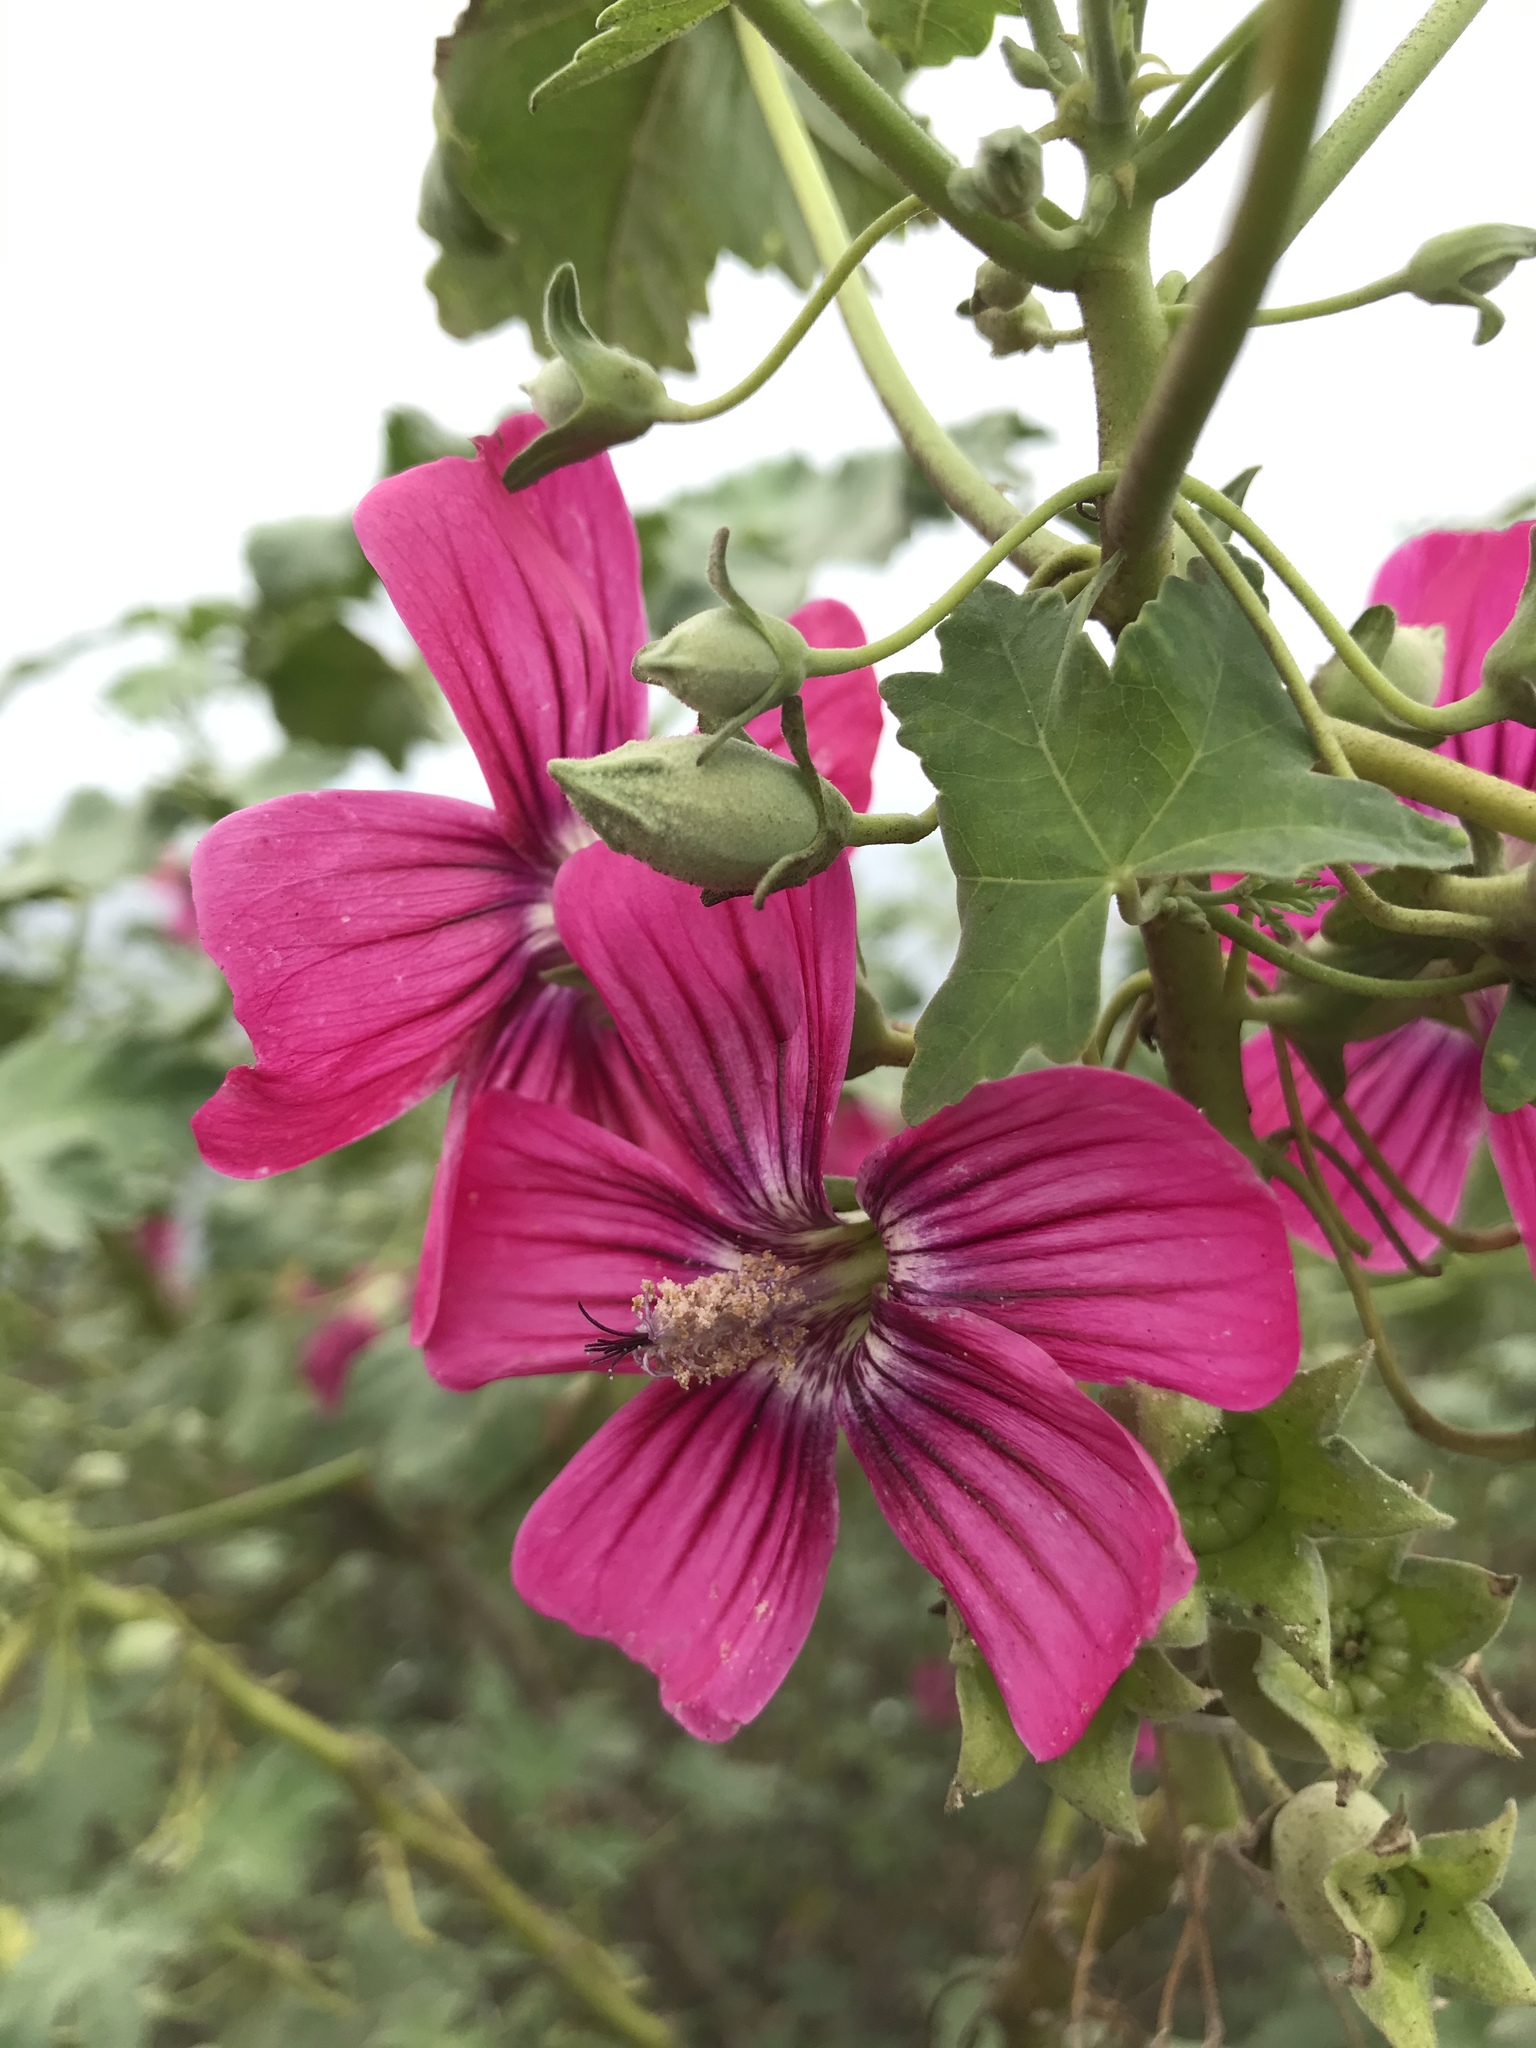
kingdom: Plantae
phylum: Tracheophyta
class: Magnoliopsida
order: Malvales
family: Malvaceae
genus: Malva
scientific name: Malva assurgentiflora
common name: Island mallow
